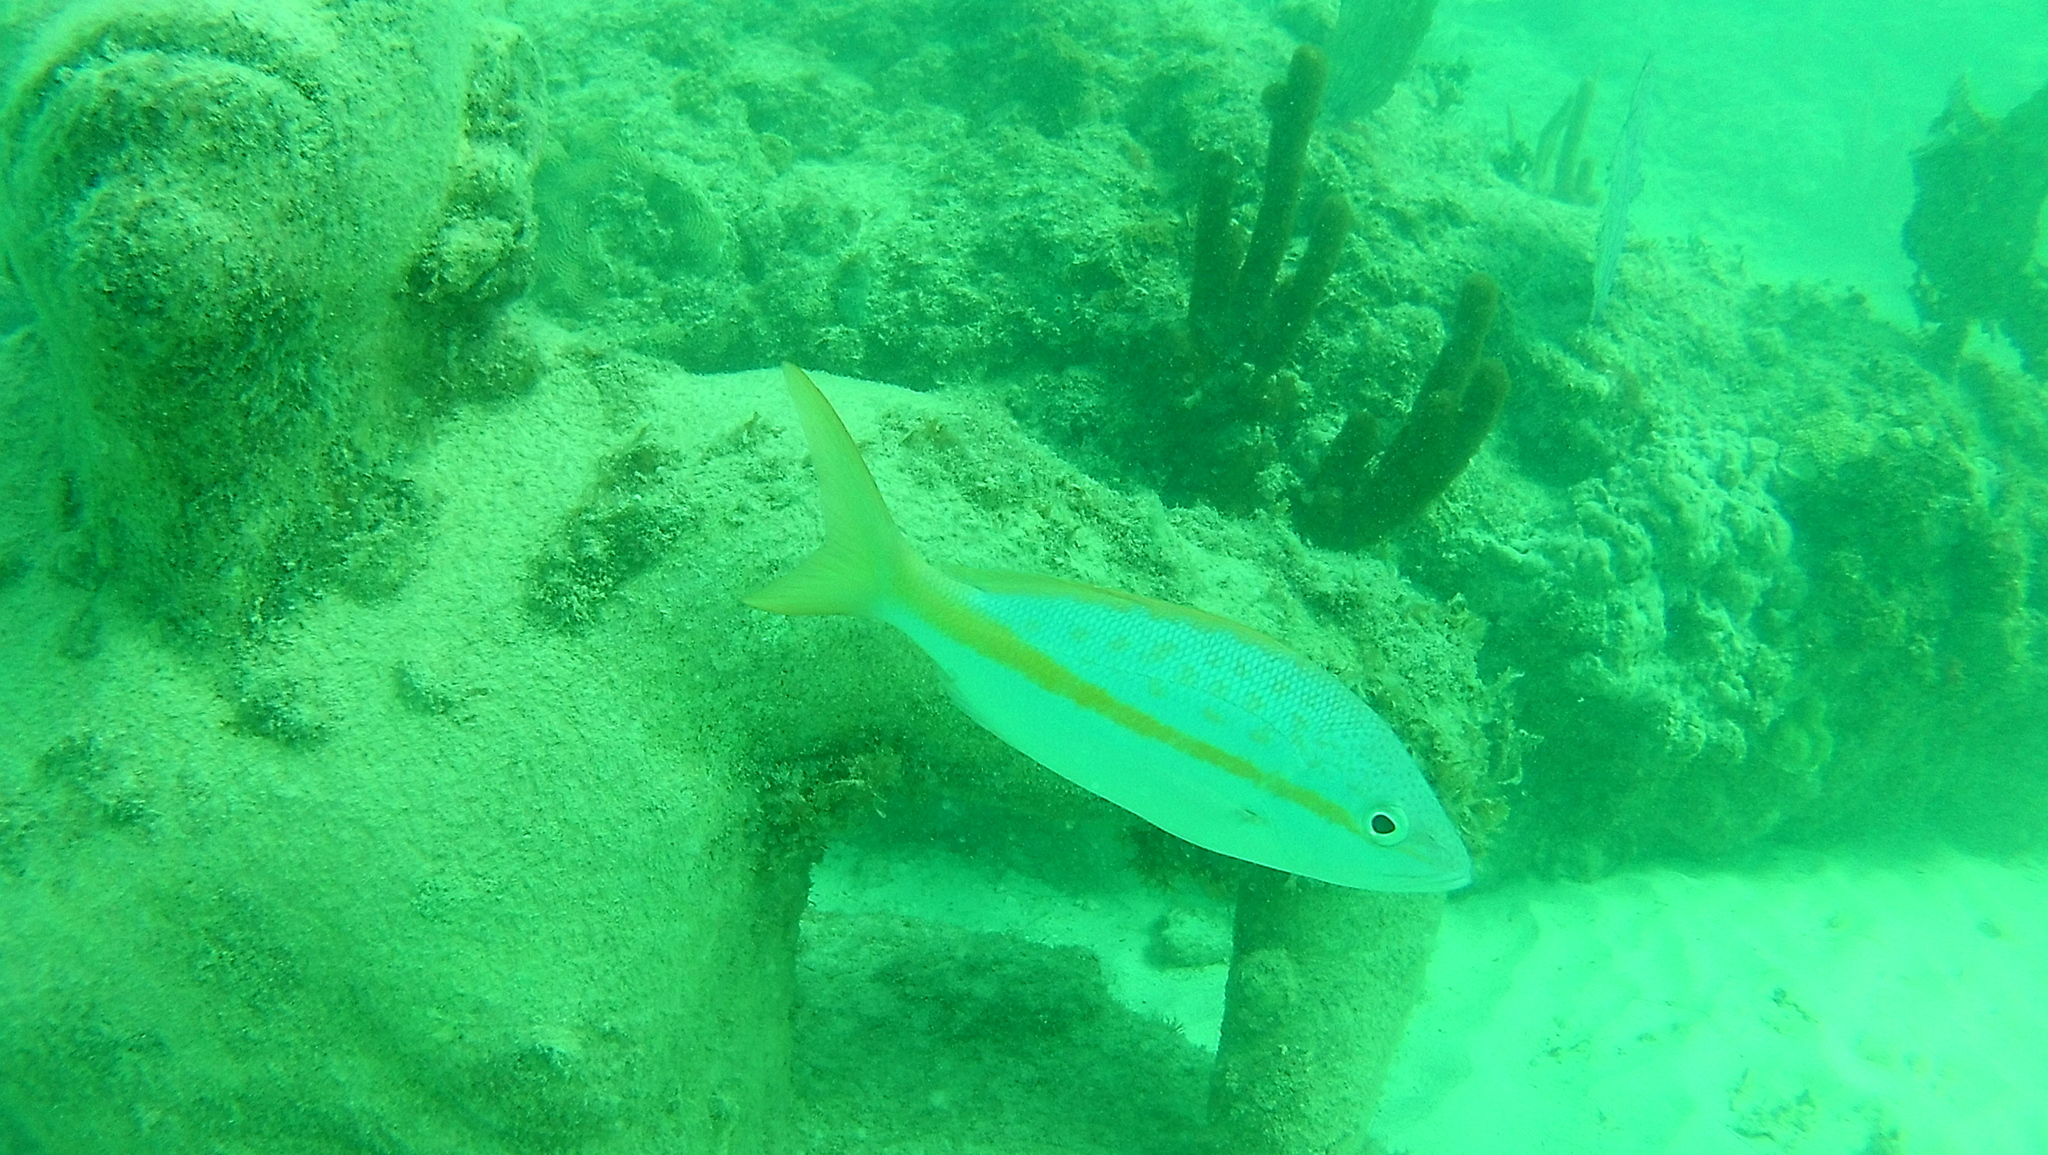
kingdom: Animalia
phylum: Chordata
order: Perciformes
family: Lutjanidae
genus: Ocyurus
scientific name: Ocyurus chrysurus
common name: Yellowtail snapper
